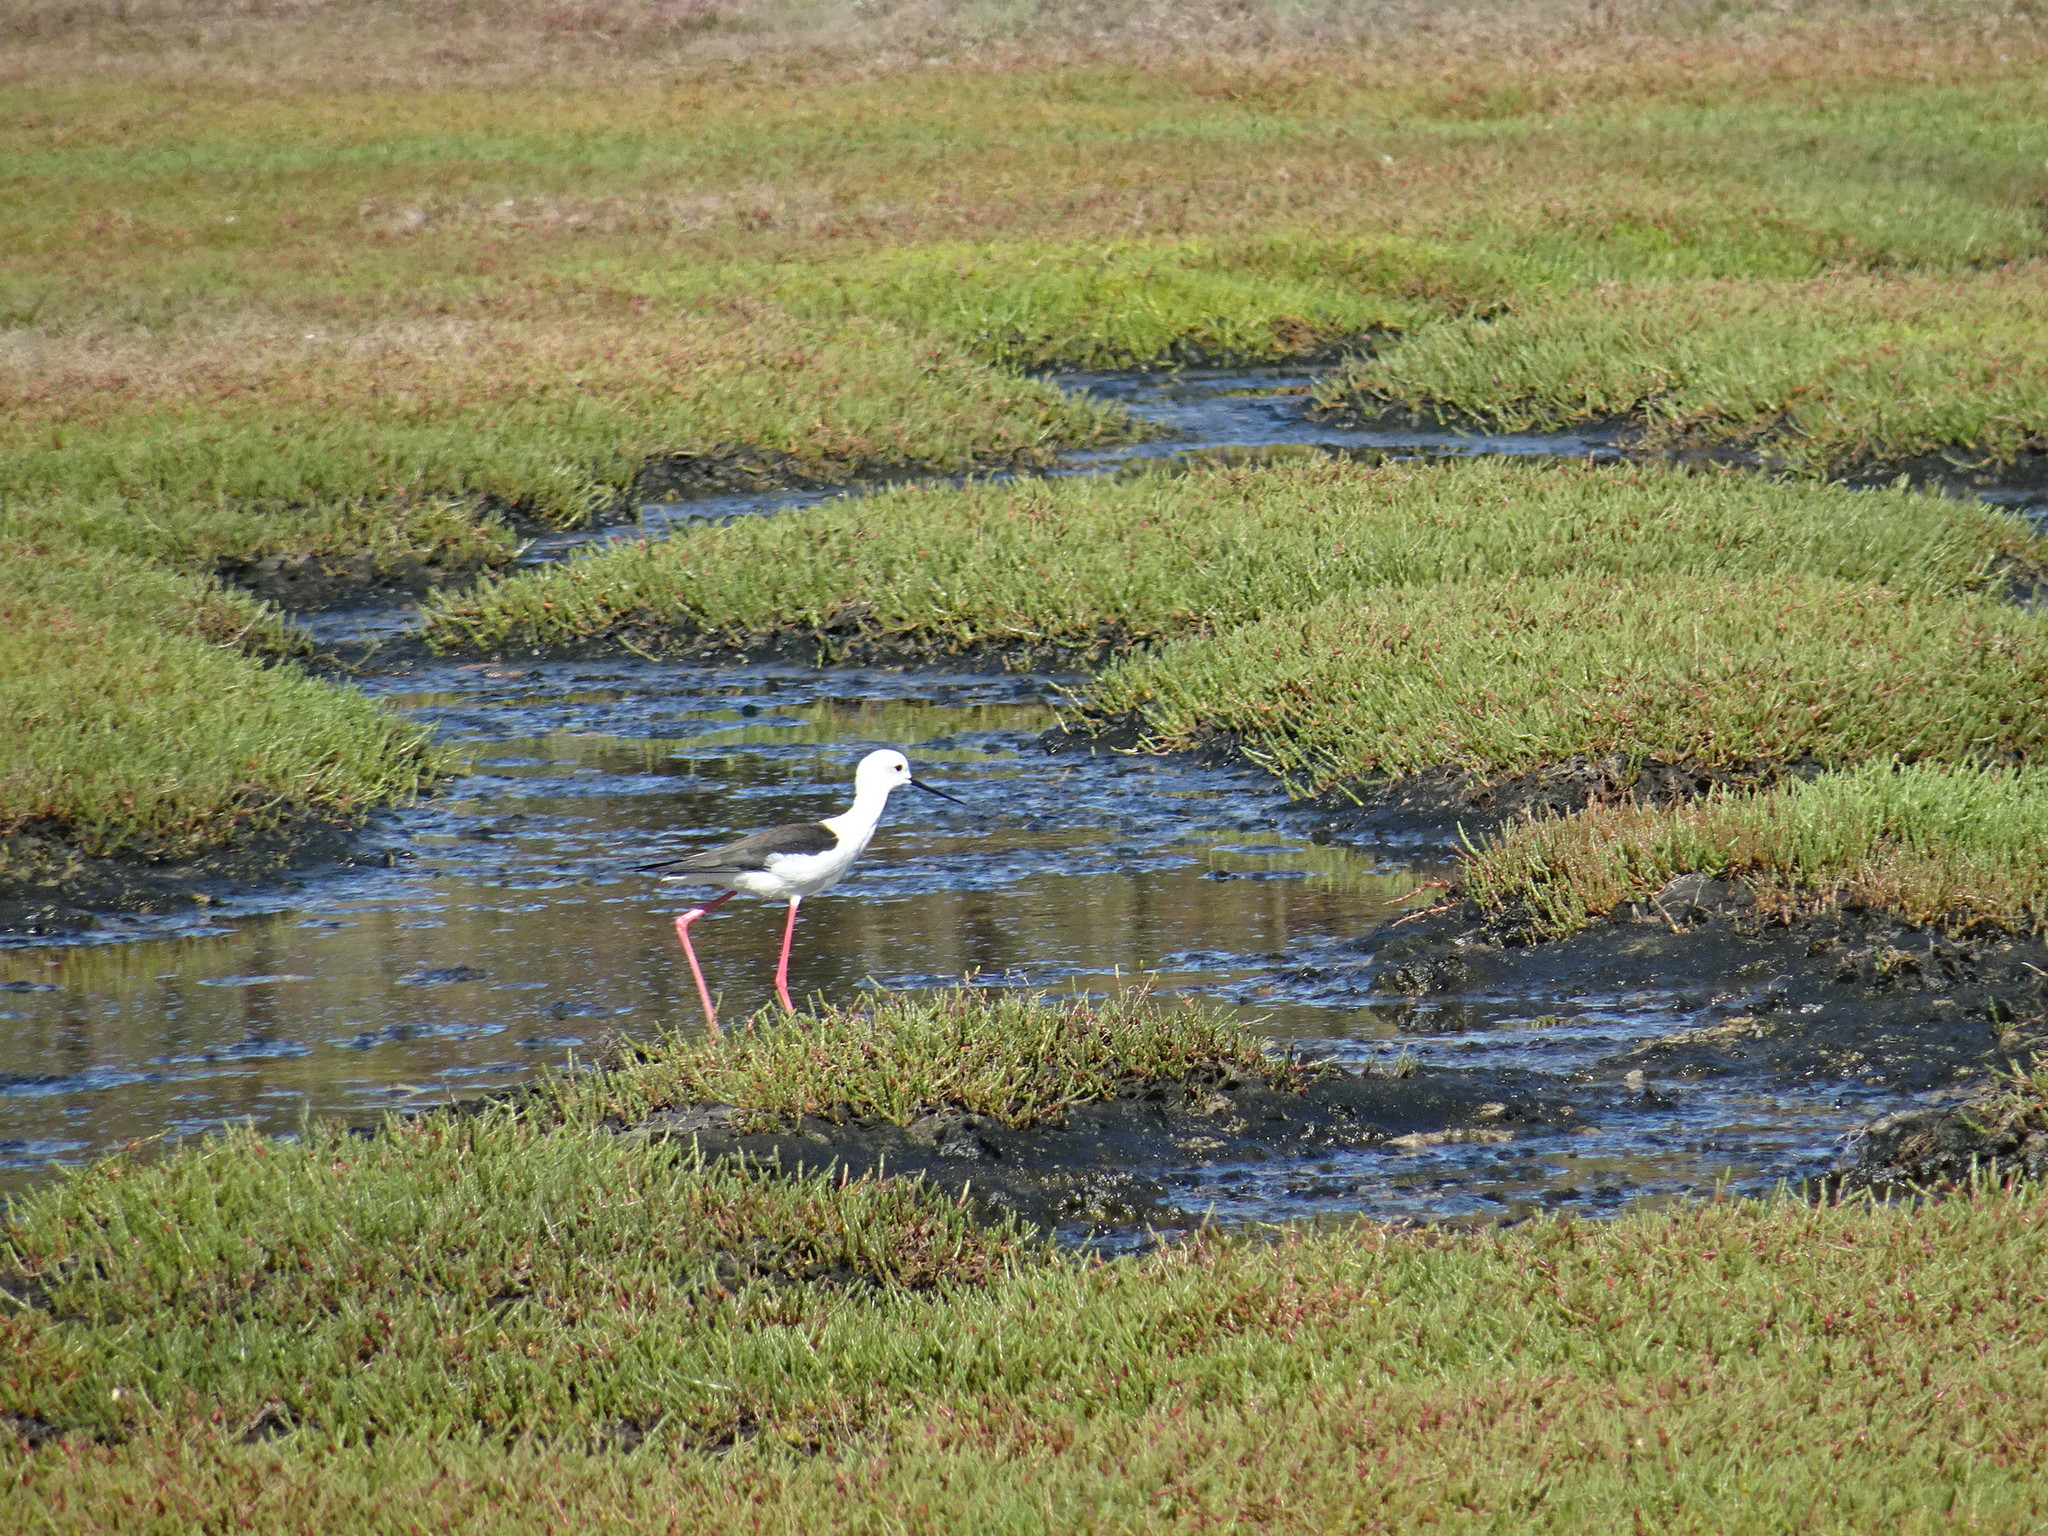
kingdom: Animalia
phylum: Chordata
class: Aves
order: Charadriiformes
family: Recurvirostridae
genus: Himantopus
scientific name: Himantopus himantopus
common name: Black-winged stilt
